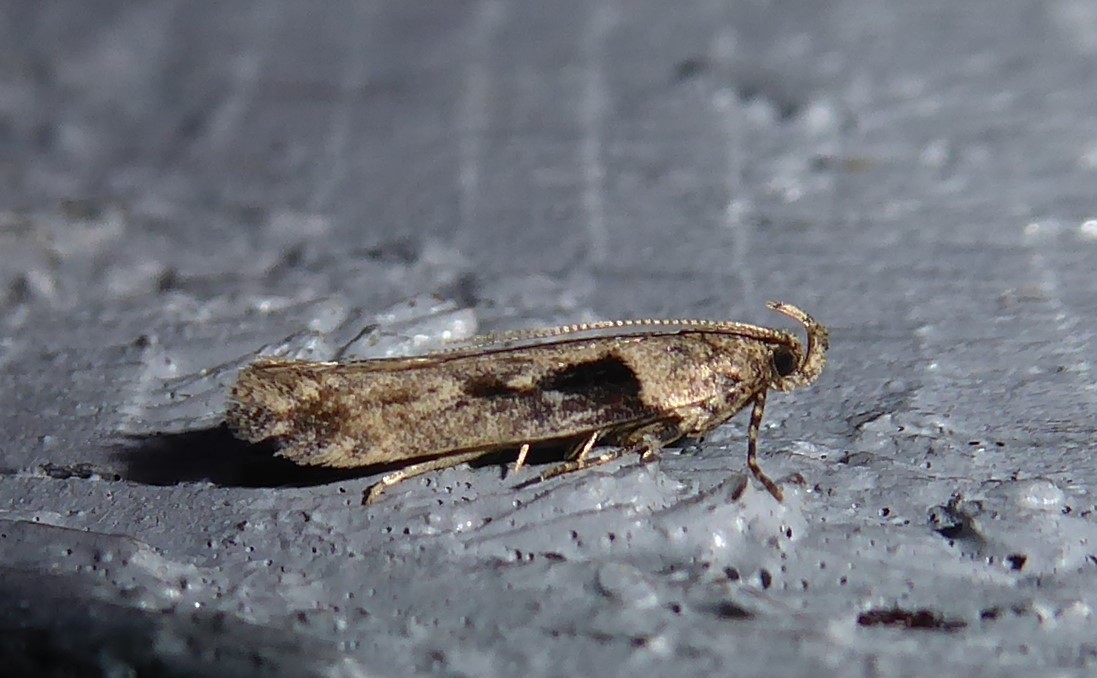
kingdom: Animalia
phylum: Arthropoda
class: Insecta
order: Lepidoptera
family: Gelechiidae
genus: Symmetrischema
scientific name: Symmetrischema tangolias
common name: Moth
